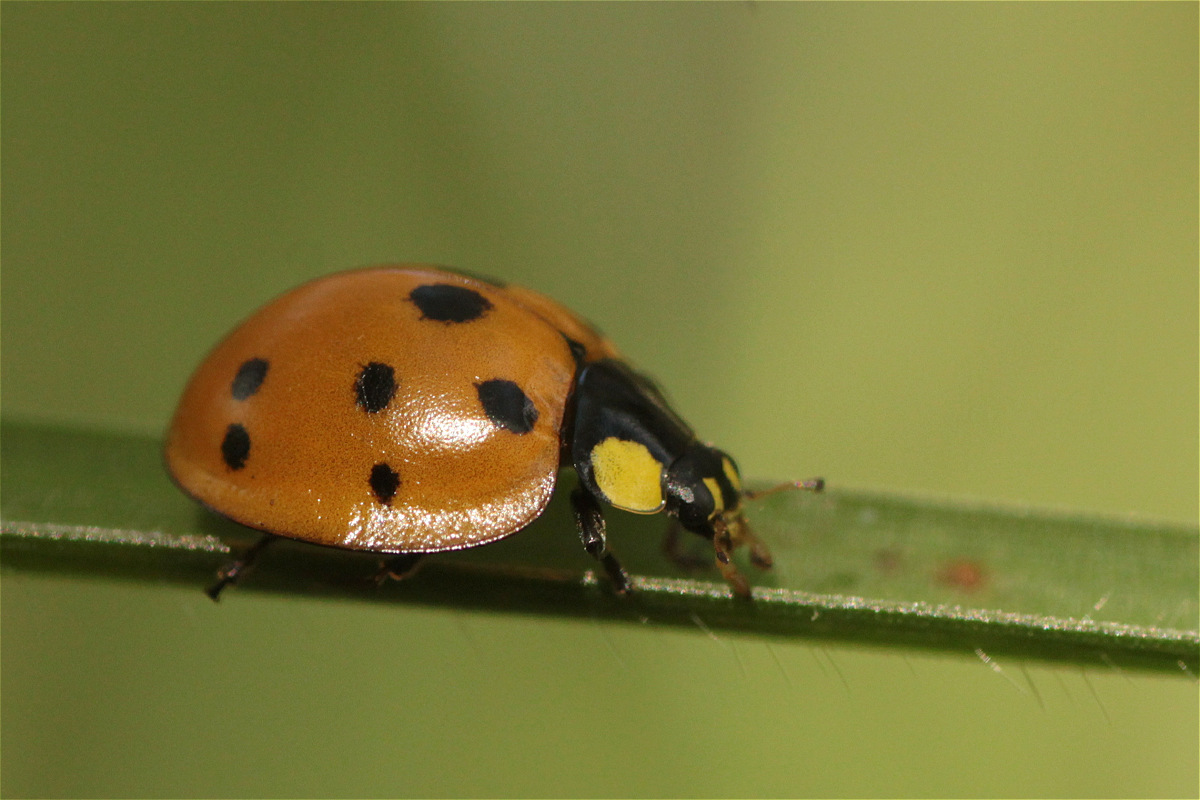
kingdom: Animalia
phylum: Arthropoda
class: Insecta
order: Coleoptera
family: Coccinellidae
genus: Neda
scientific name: Neda aequatoriana
